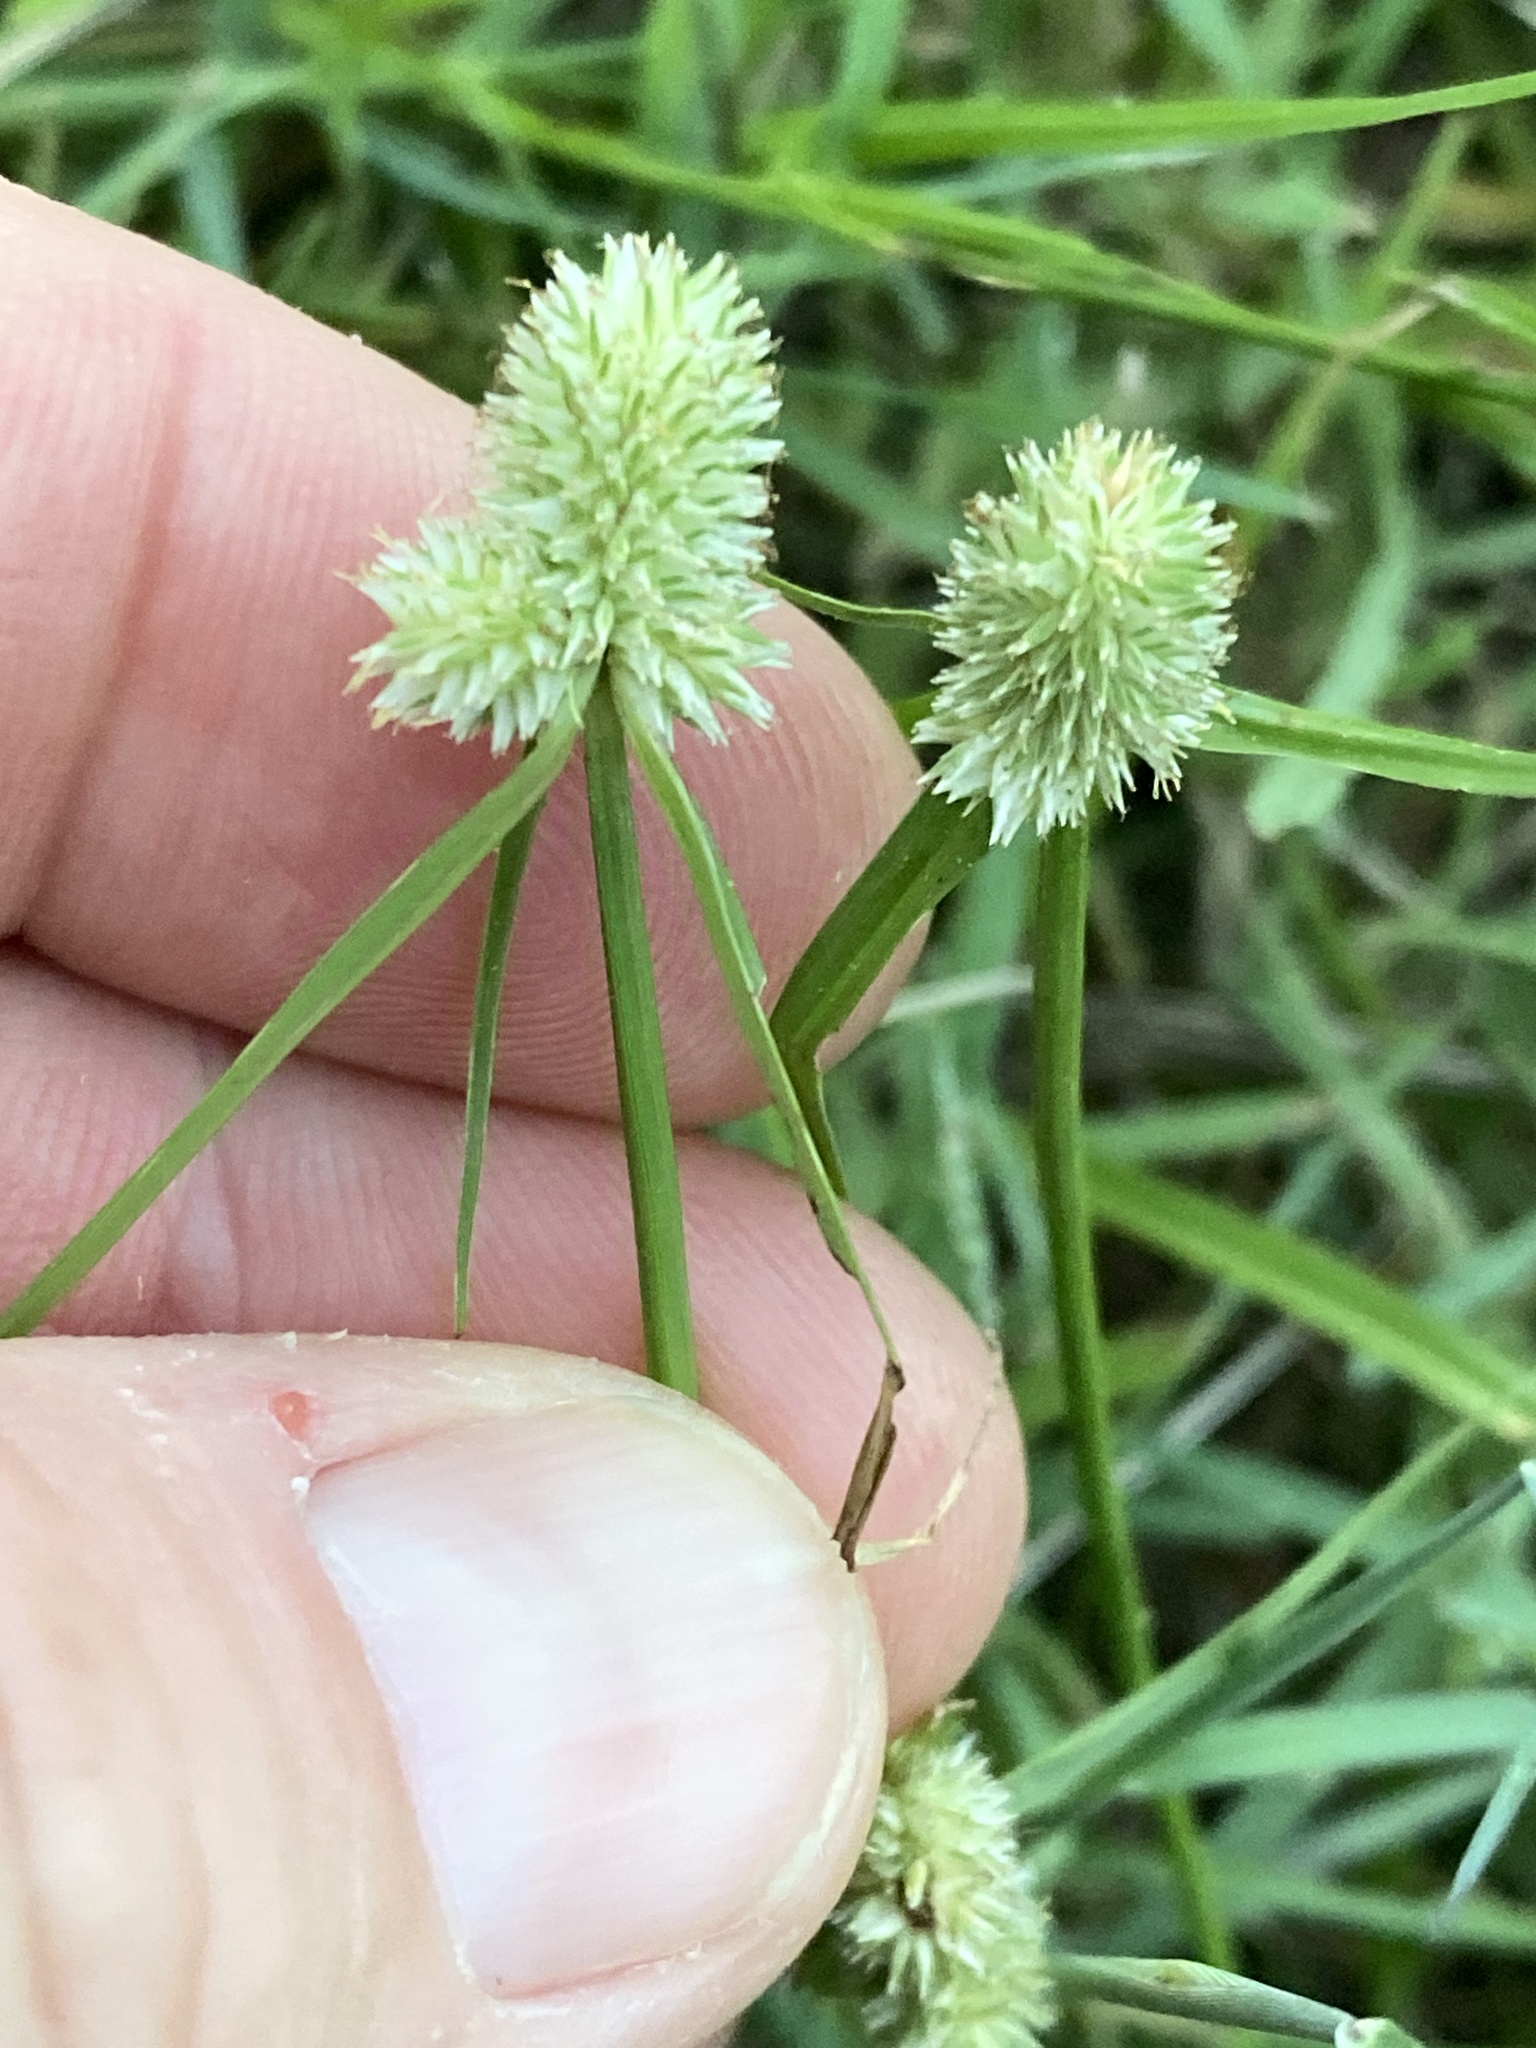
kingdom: Plantae
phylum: Tracheophyta
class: Liliopsida
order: Poales
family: Cyperaceae
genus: Cyperus
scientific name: Cyperus sesquiflorus
